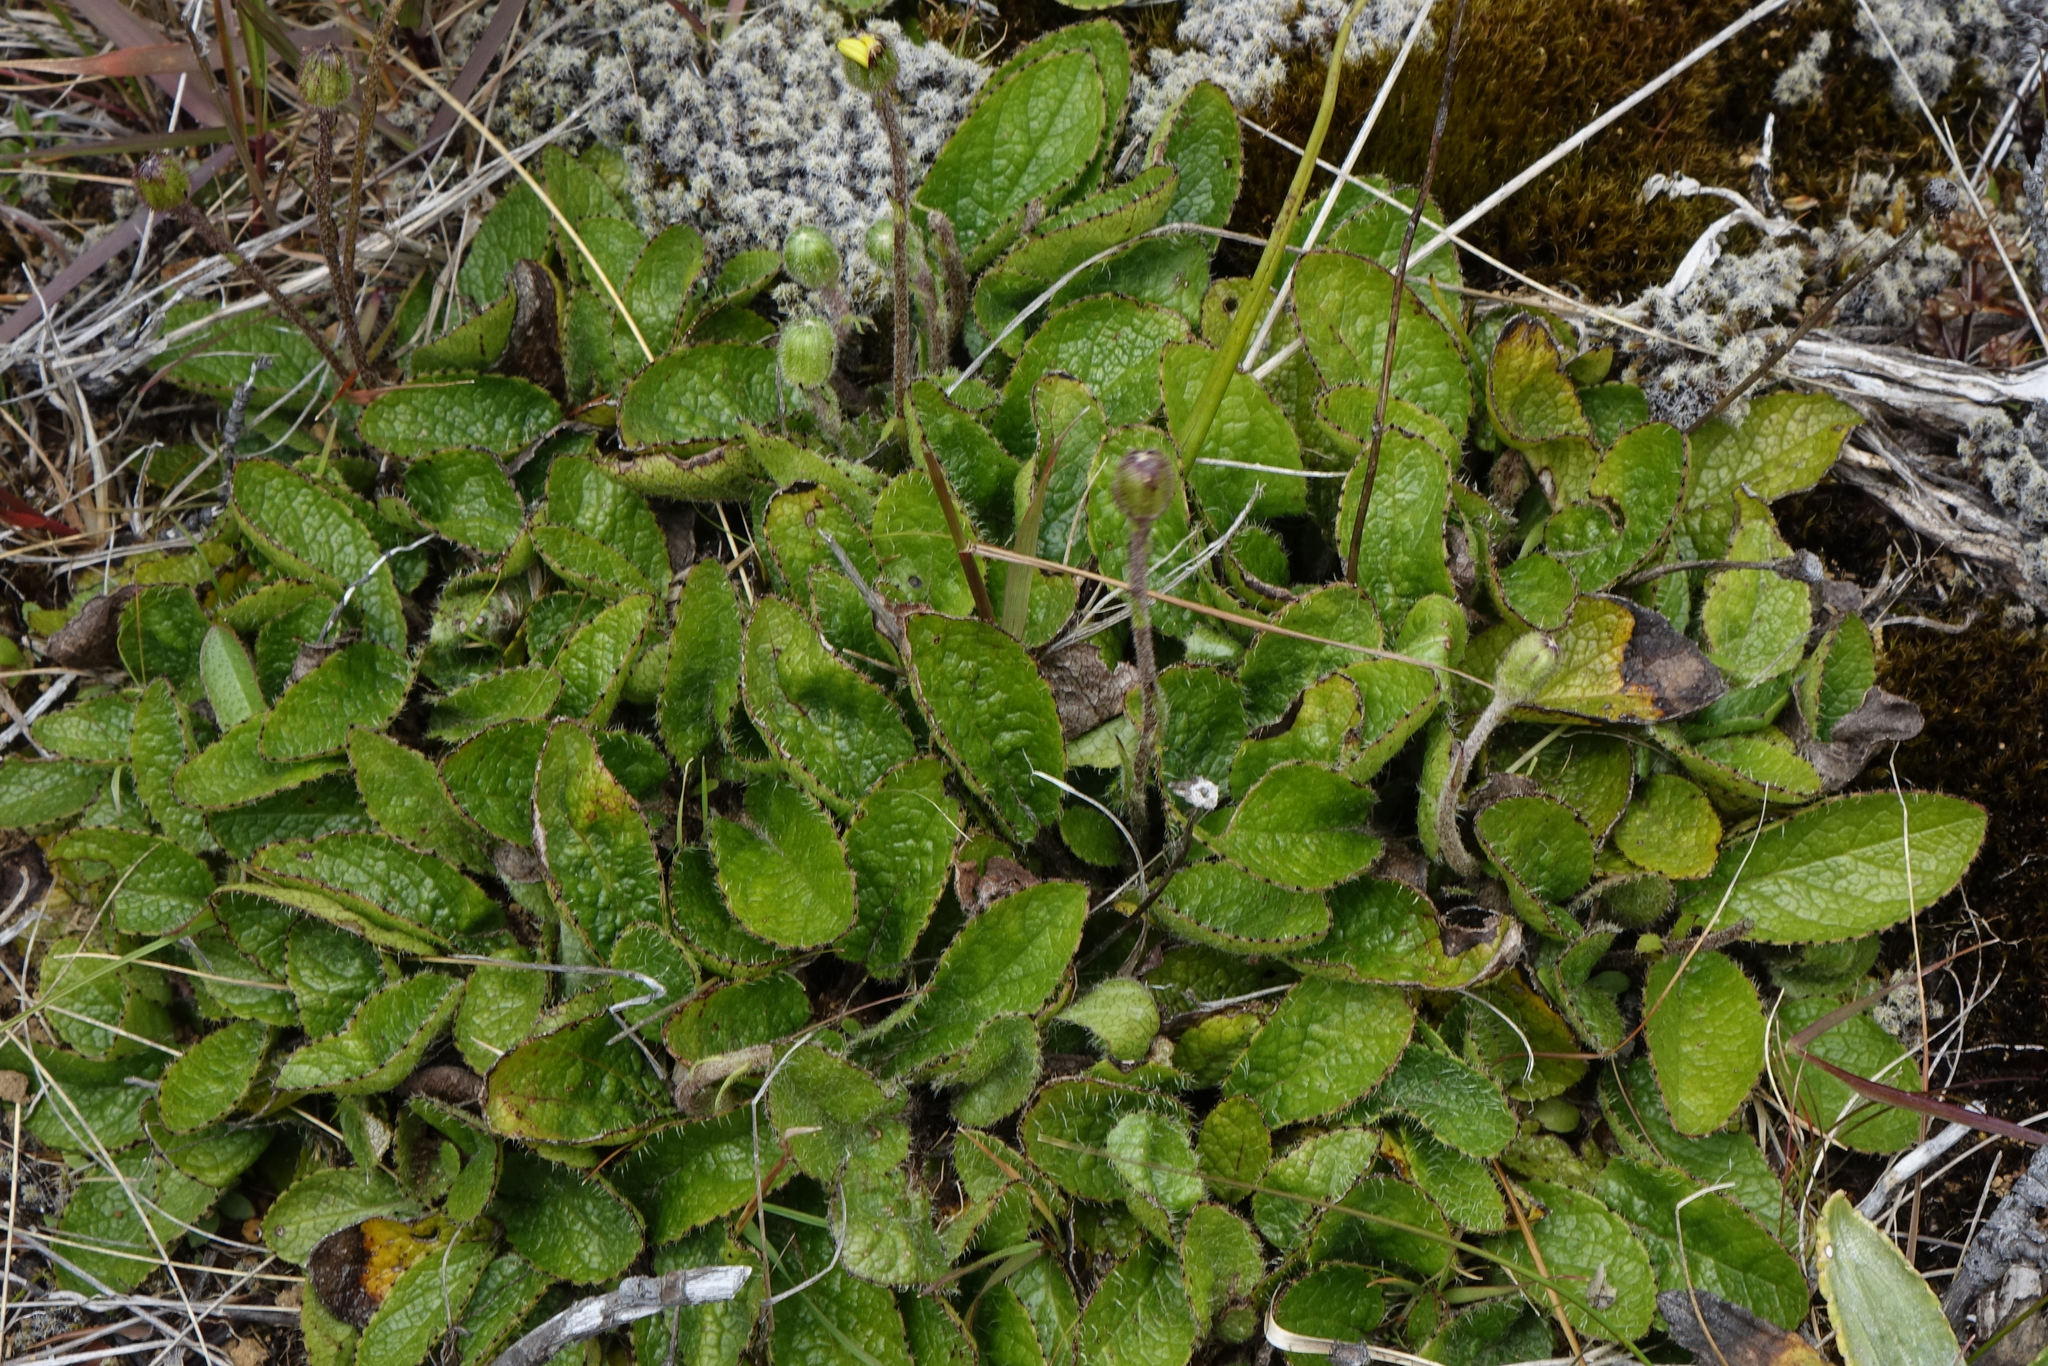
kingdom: Plantae
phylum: Tracheophyta
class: Magnoliopsida
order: Asterales
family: Asteraceae
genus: Brachyglottis
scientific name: Brachyglottis bellidioides
